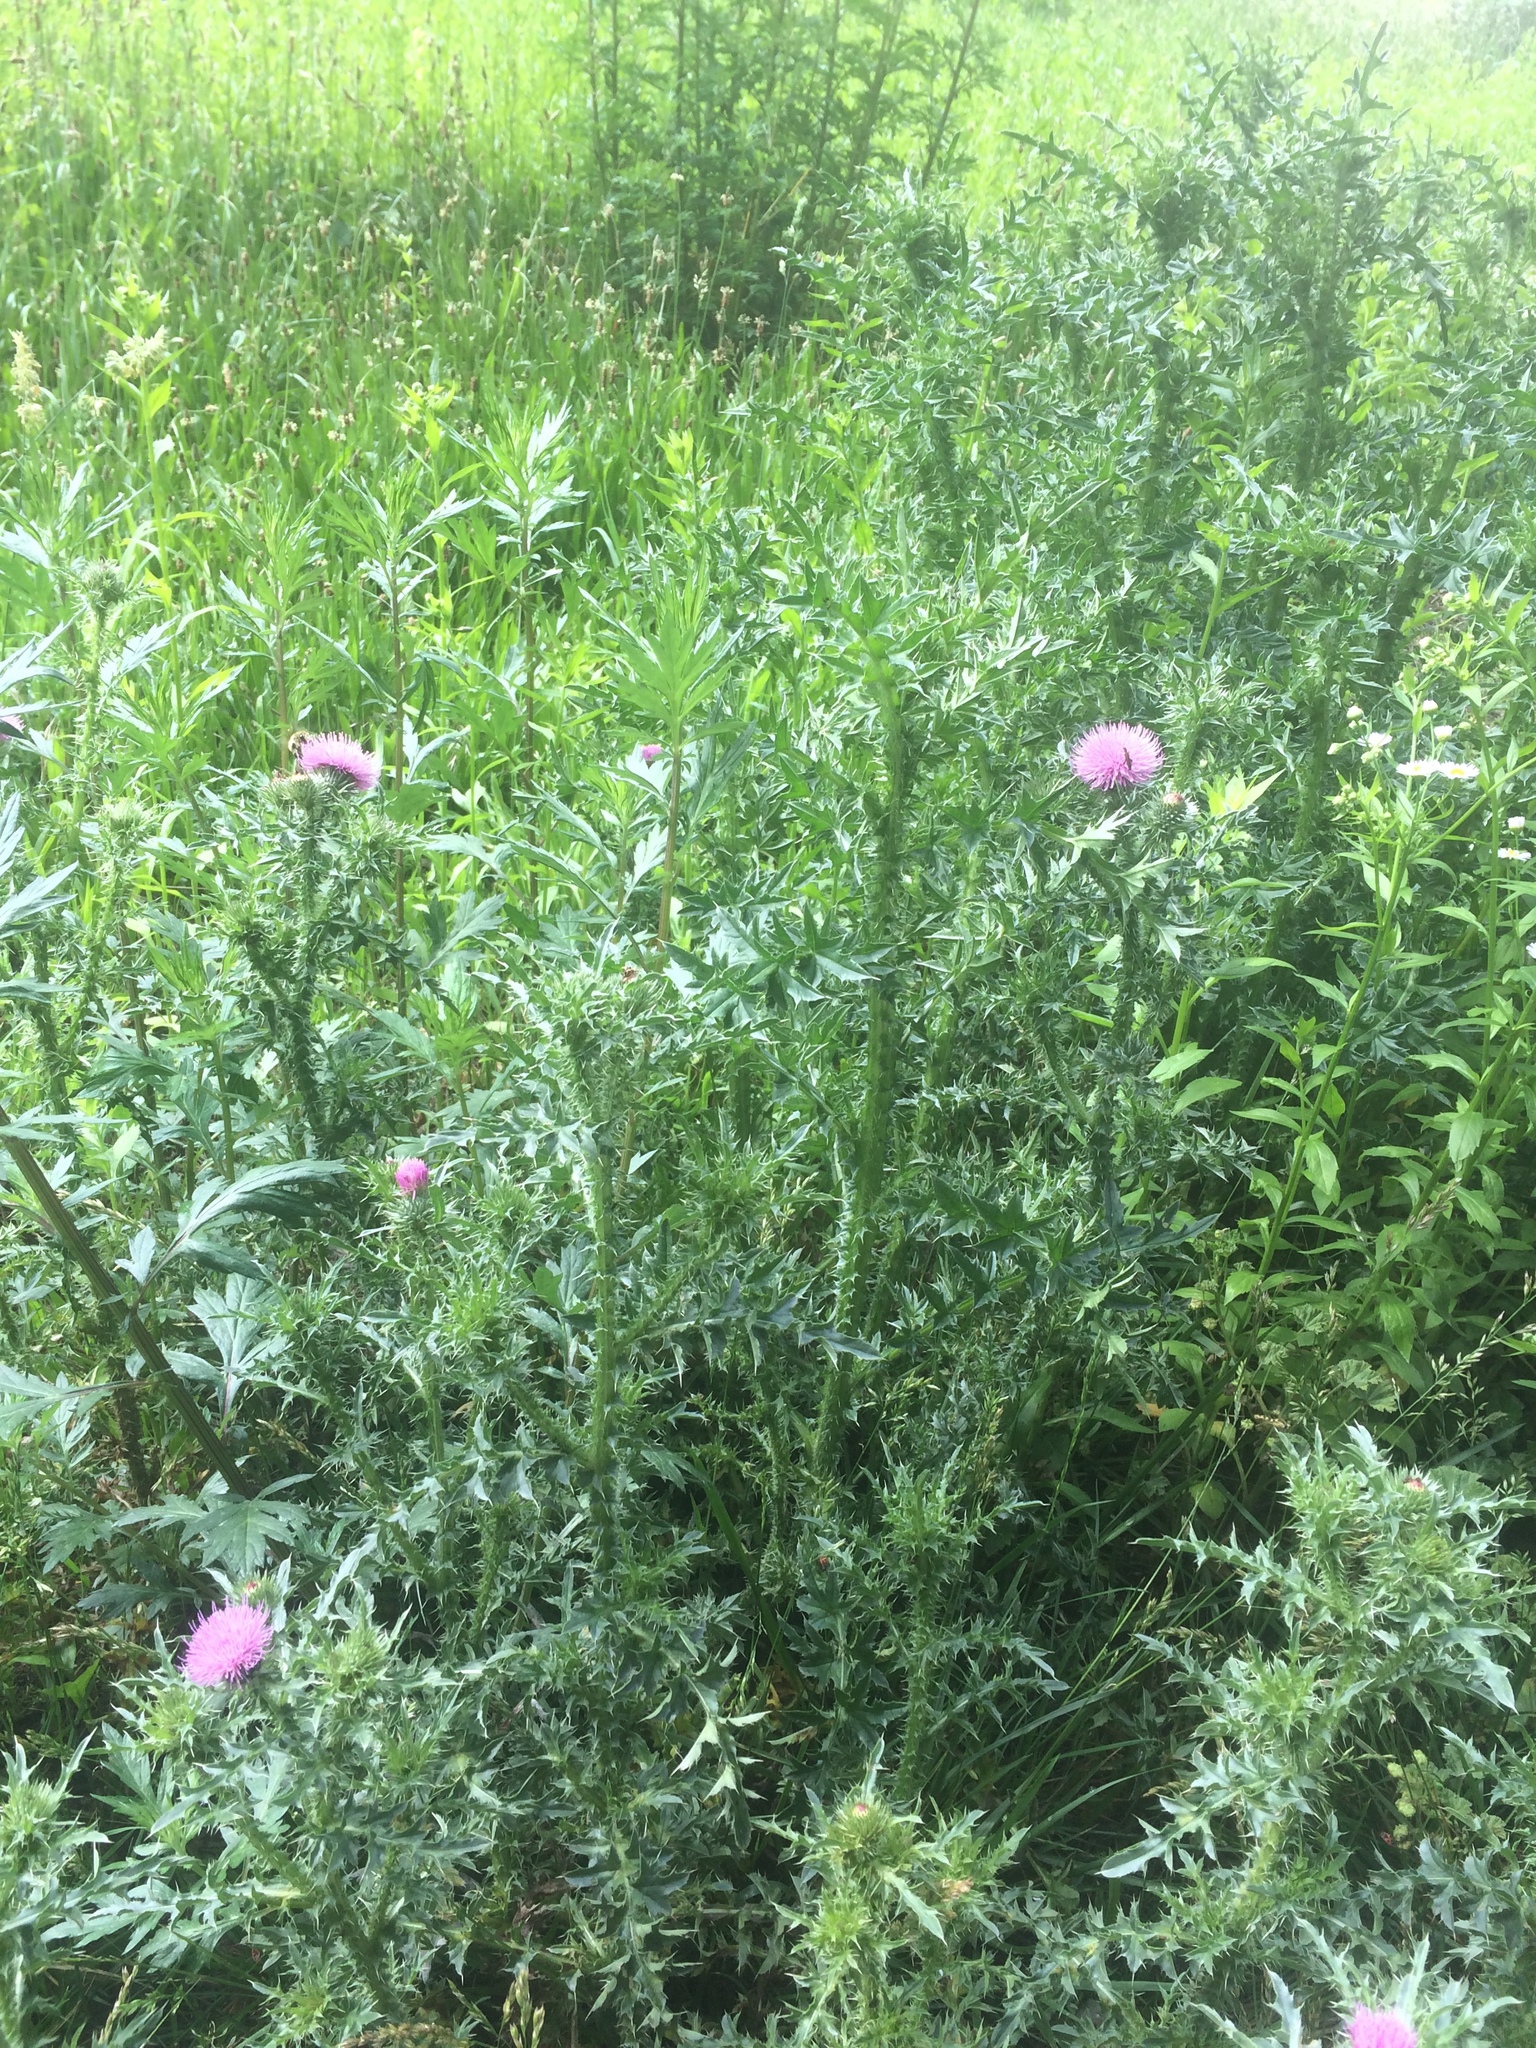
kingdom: Plantae
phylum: Tracheophyta
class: Magnoliopsida
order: Asterales
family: Asteraceae
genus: Carduus
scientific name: Carduus acanthoides
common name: Plumeless thistle
